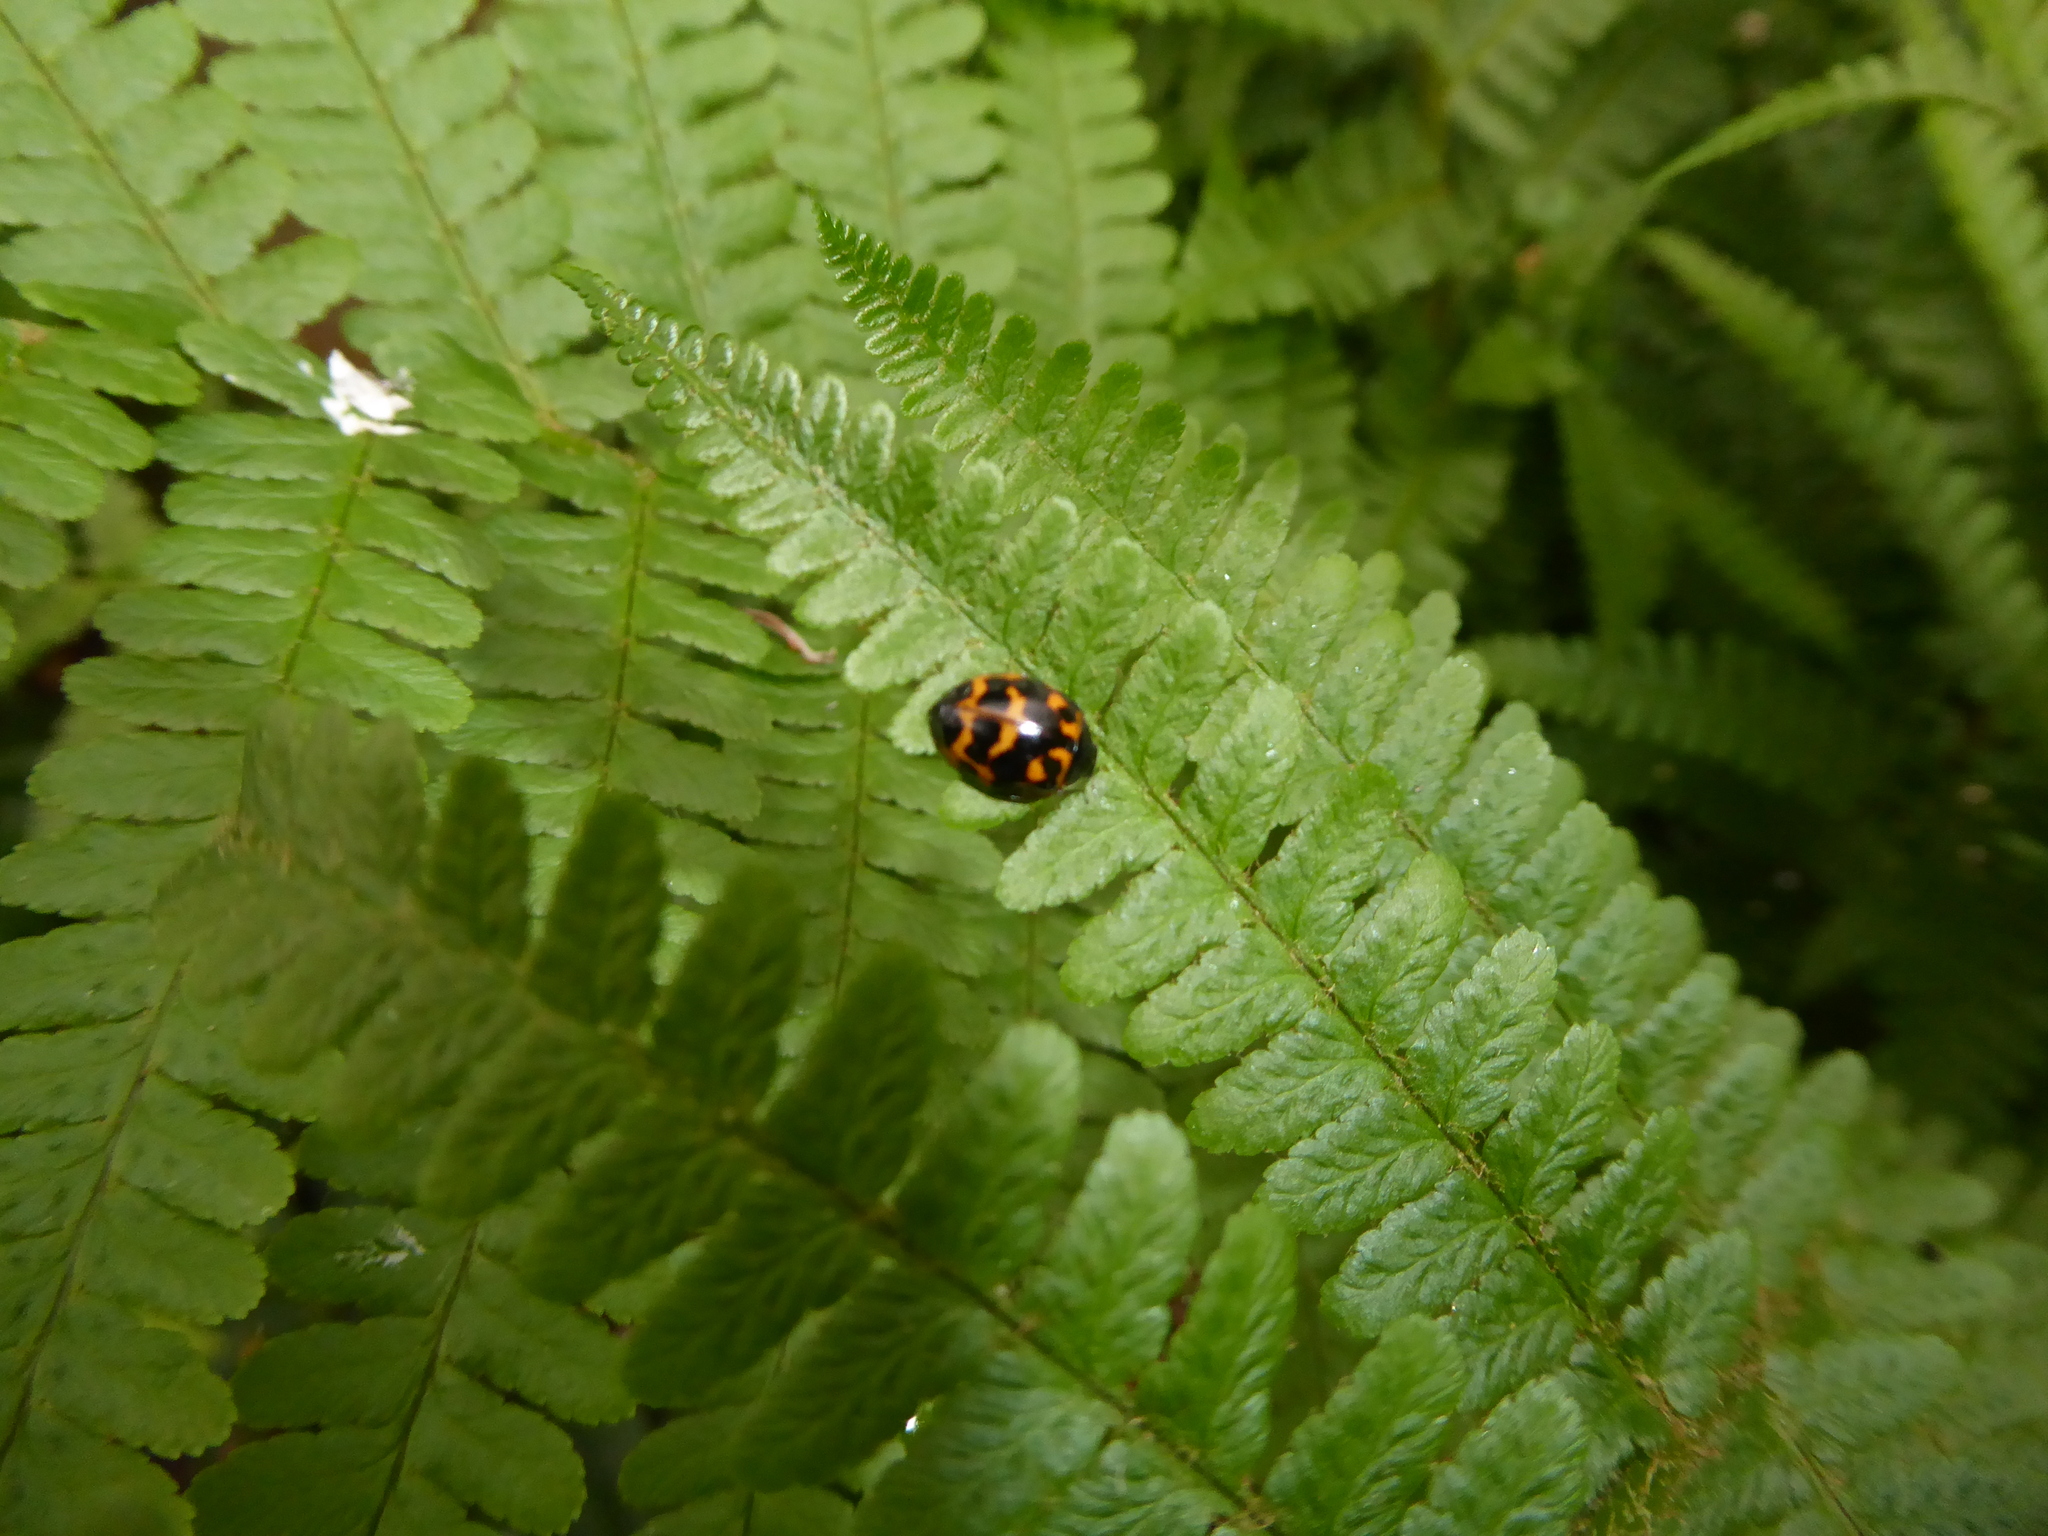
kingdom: Animalia
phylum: Arthropoda
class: Insecta
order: Coleoptera
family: Coccinellidae
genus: Harmonia
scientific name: Harmonia axyridis
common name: Harlequin ladybird
